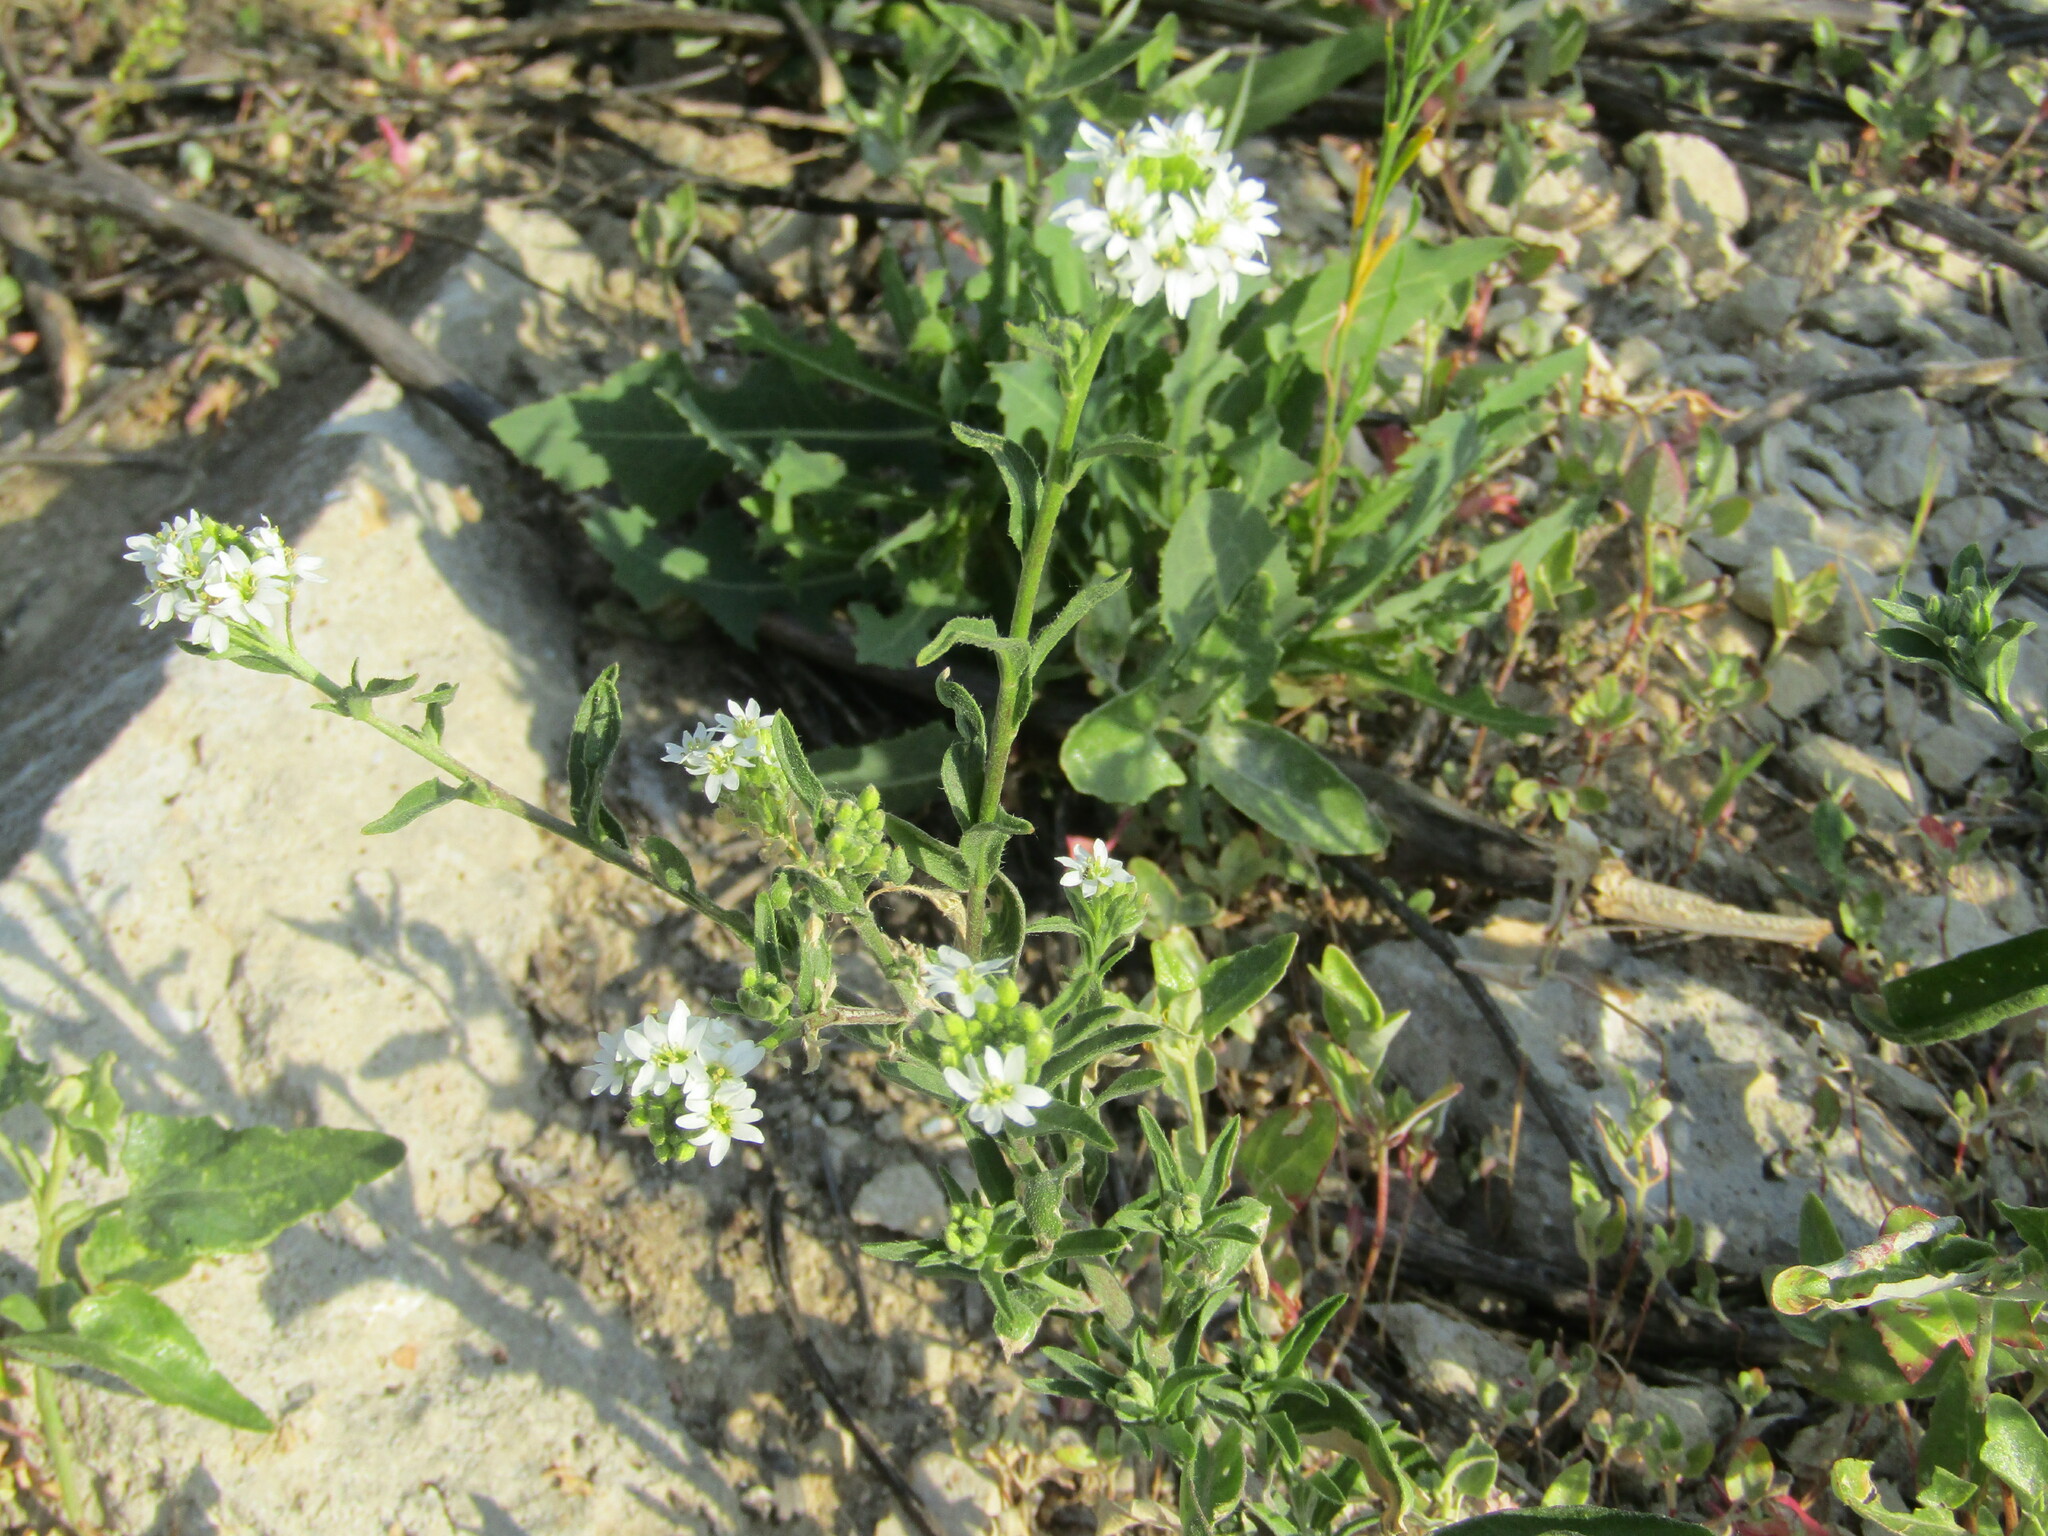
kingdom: Plantae
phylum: Tracheophyta
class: Magnoliopsida
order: Brassicales
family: Brassicaceae
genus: Berteroa
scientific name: Berteroa incana
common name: Hoary alison
